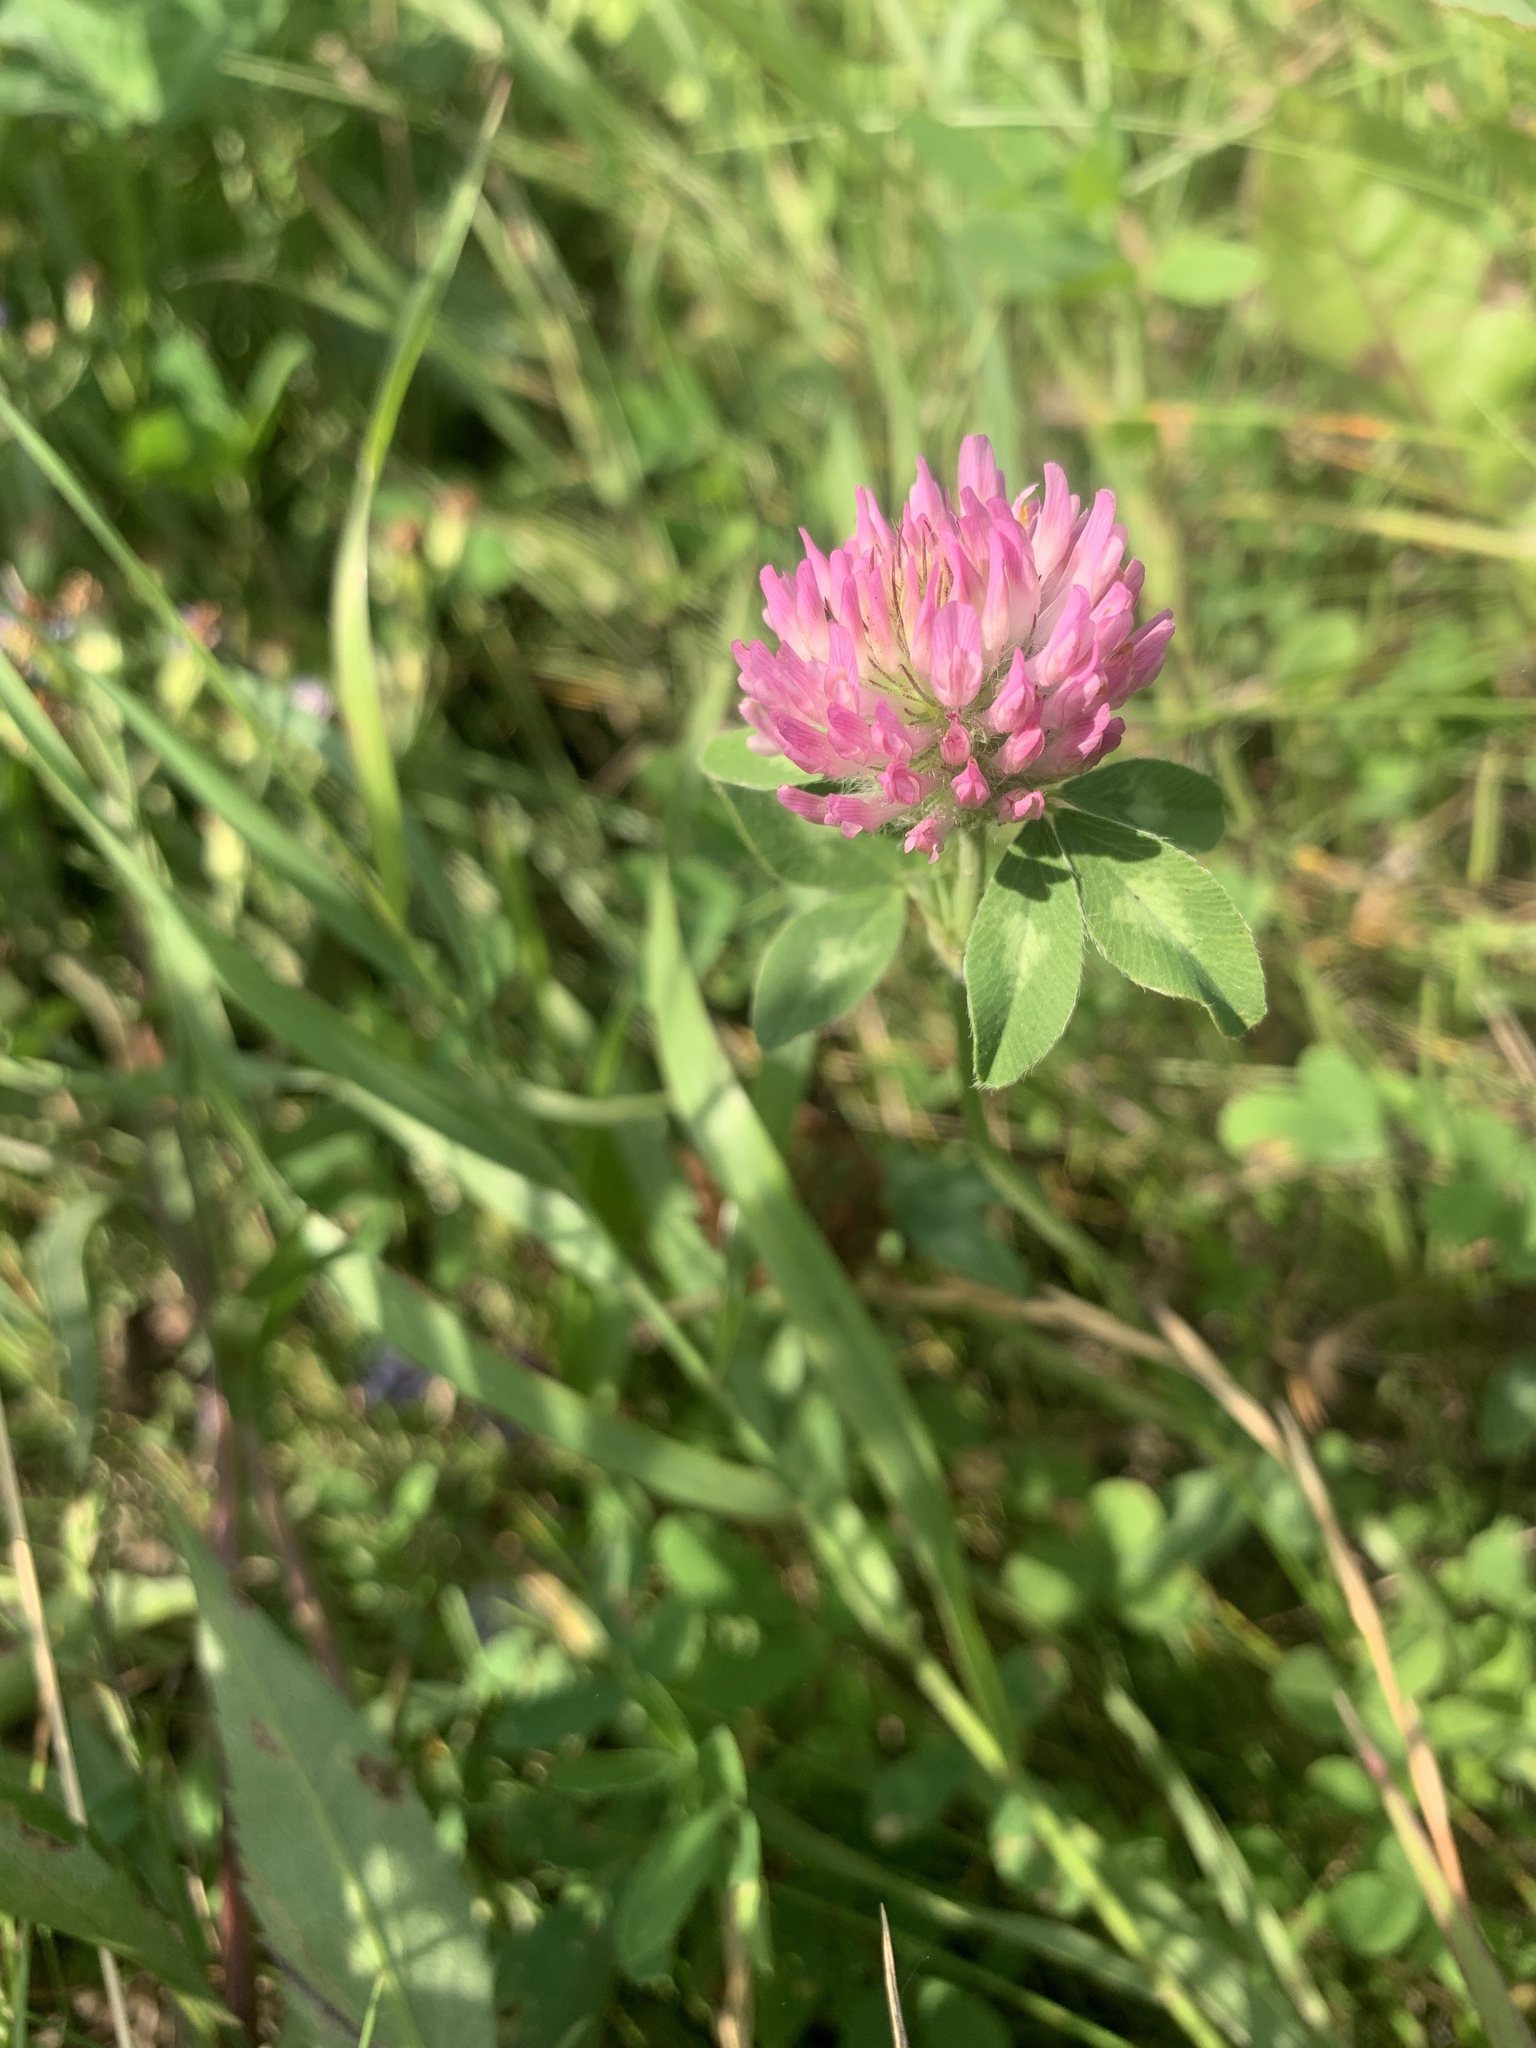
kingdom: Plantae
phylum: Tracheophyta
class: Magnoliopsida
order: Fabales
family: Fabaceae
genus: Trifolium
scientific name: Trifolium pratense
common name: Red clover
